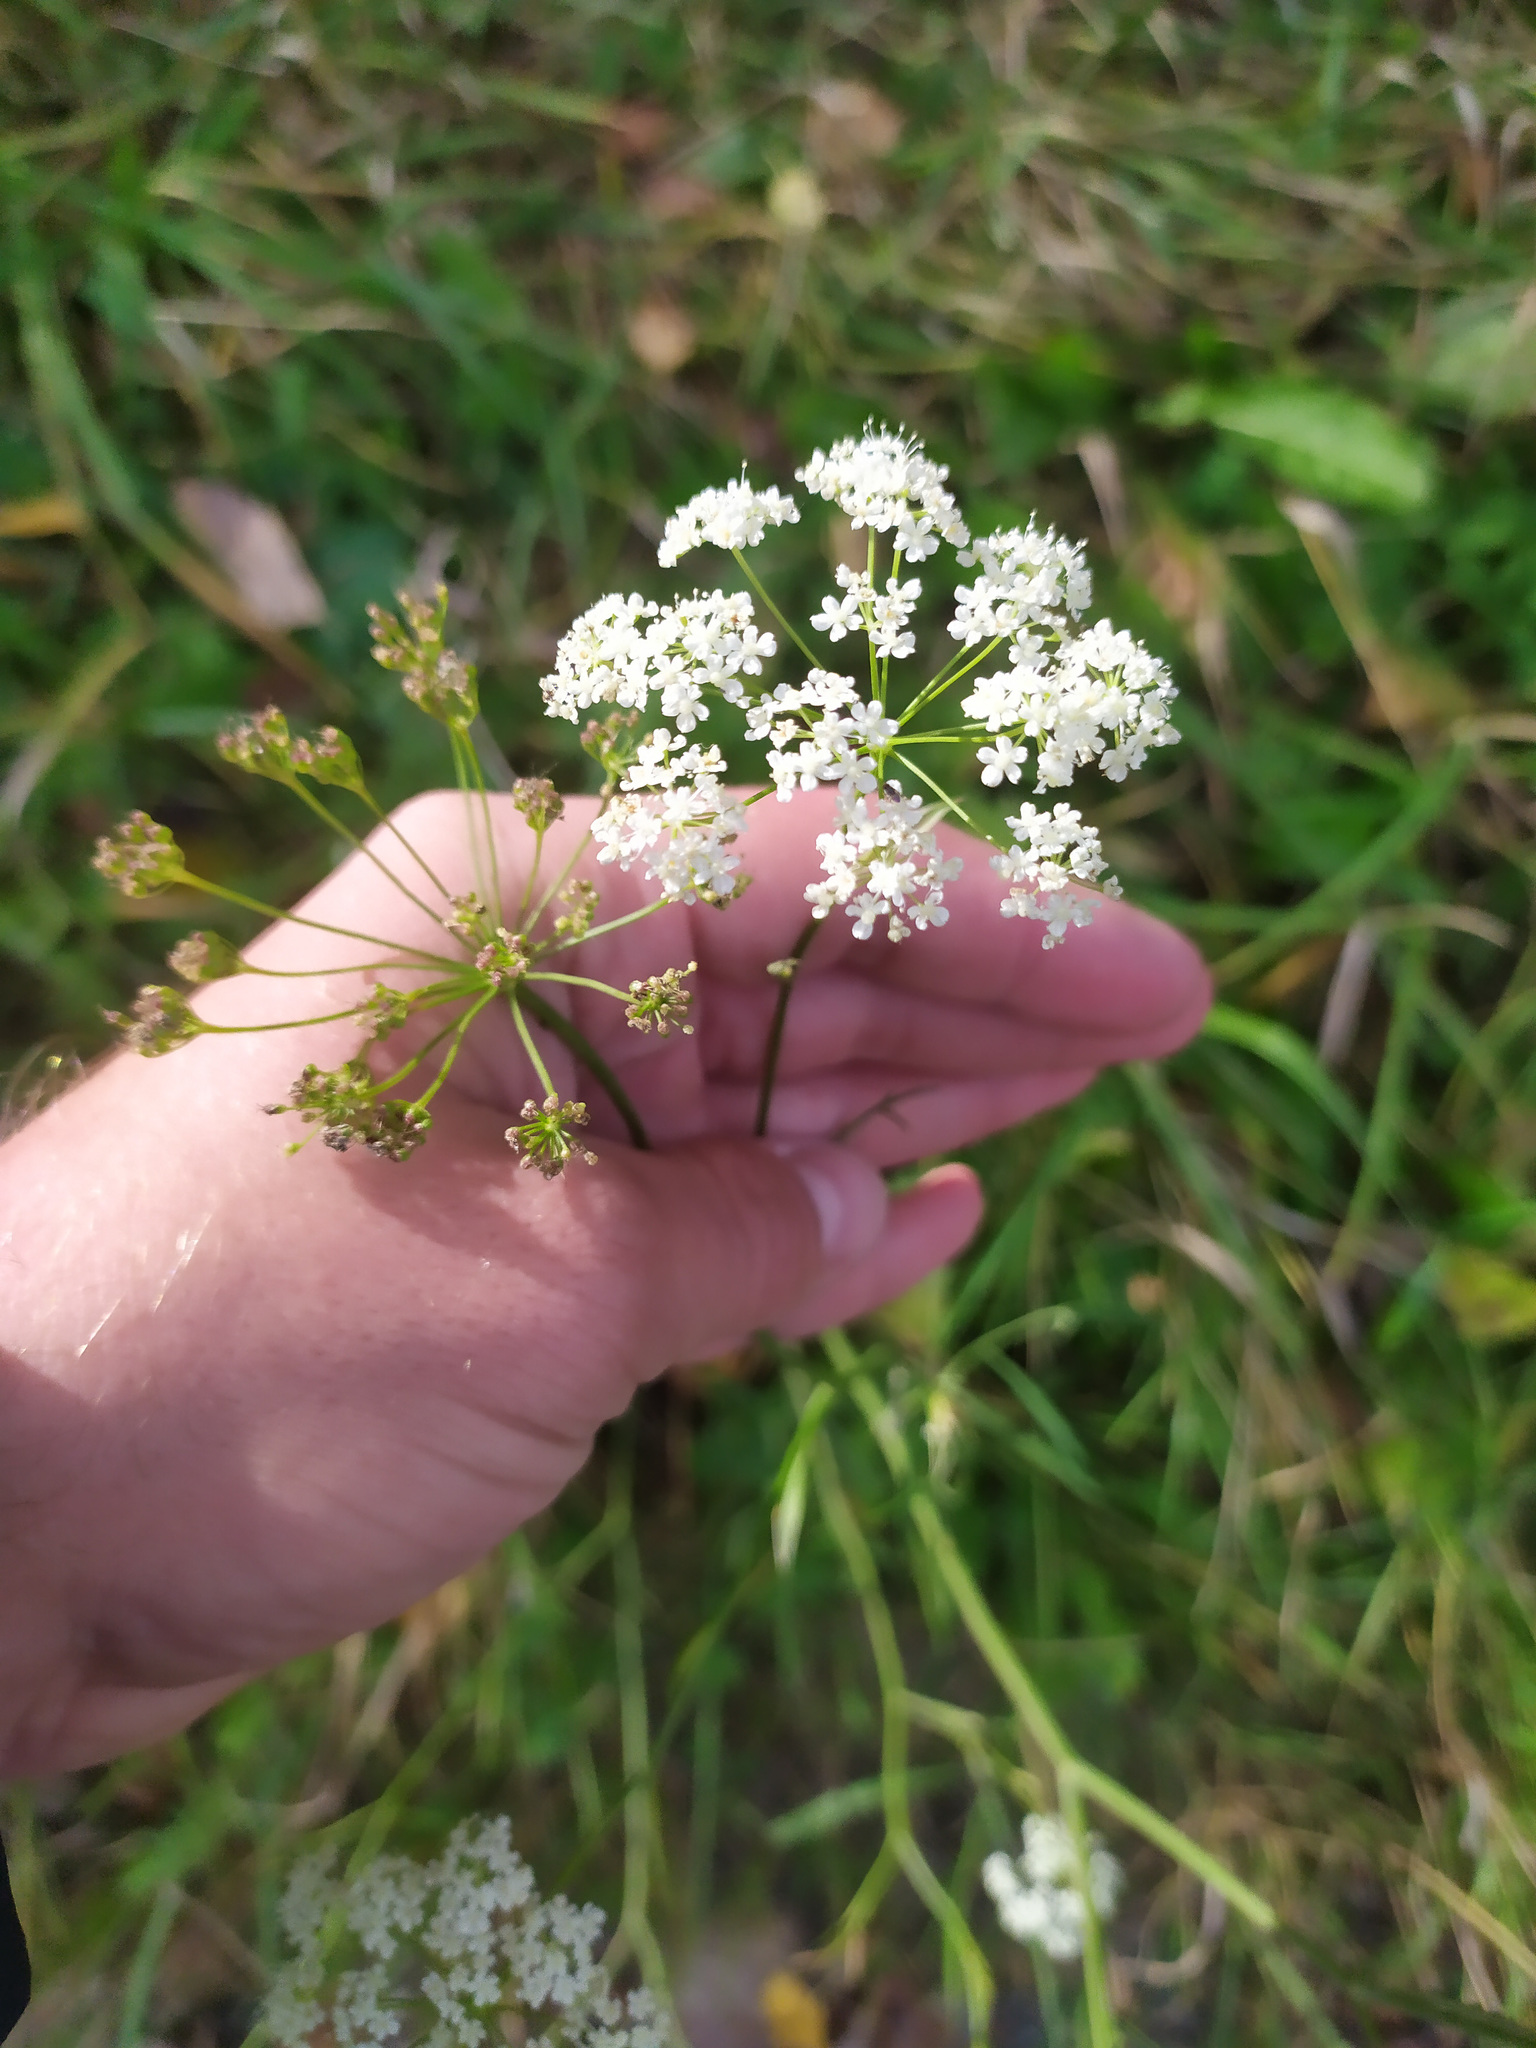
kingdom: Plantae
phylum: Tracheophyta
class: Magnoliopsida
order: Apiales
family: Apiaceae
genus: Pimpinella
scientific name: Pimpinella saxifraga
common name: Burnet-saxifrage
